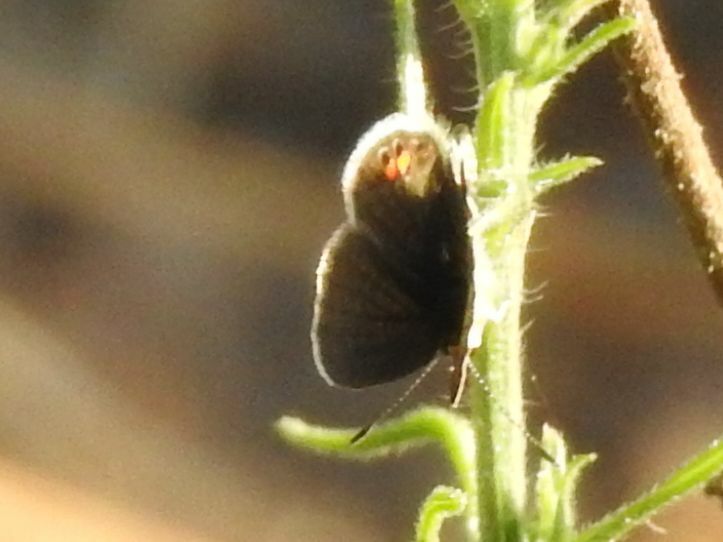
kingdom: Animalia
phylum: Arthropoda
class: Insecta
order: Lepidoptera
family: Lycaenidae
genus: Freyeria
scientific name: Freyeria trochylus
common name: Grass jewel
